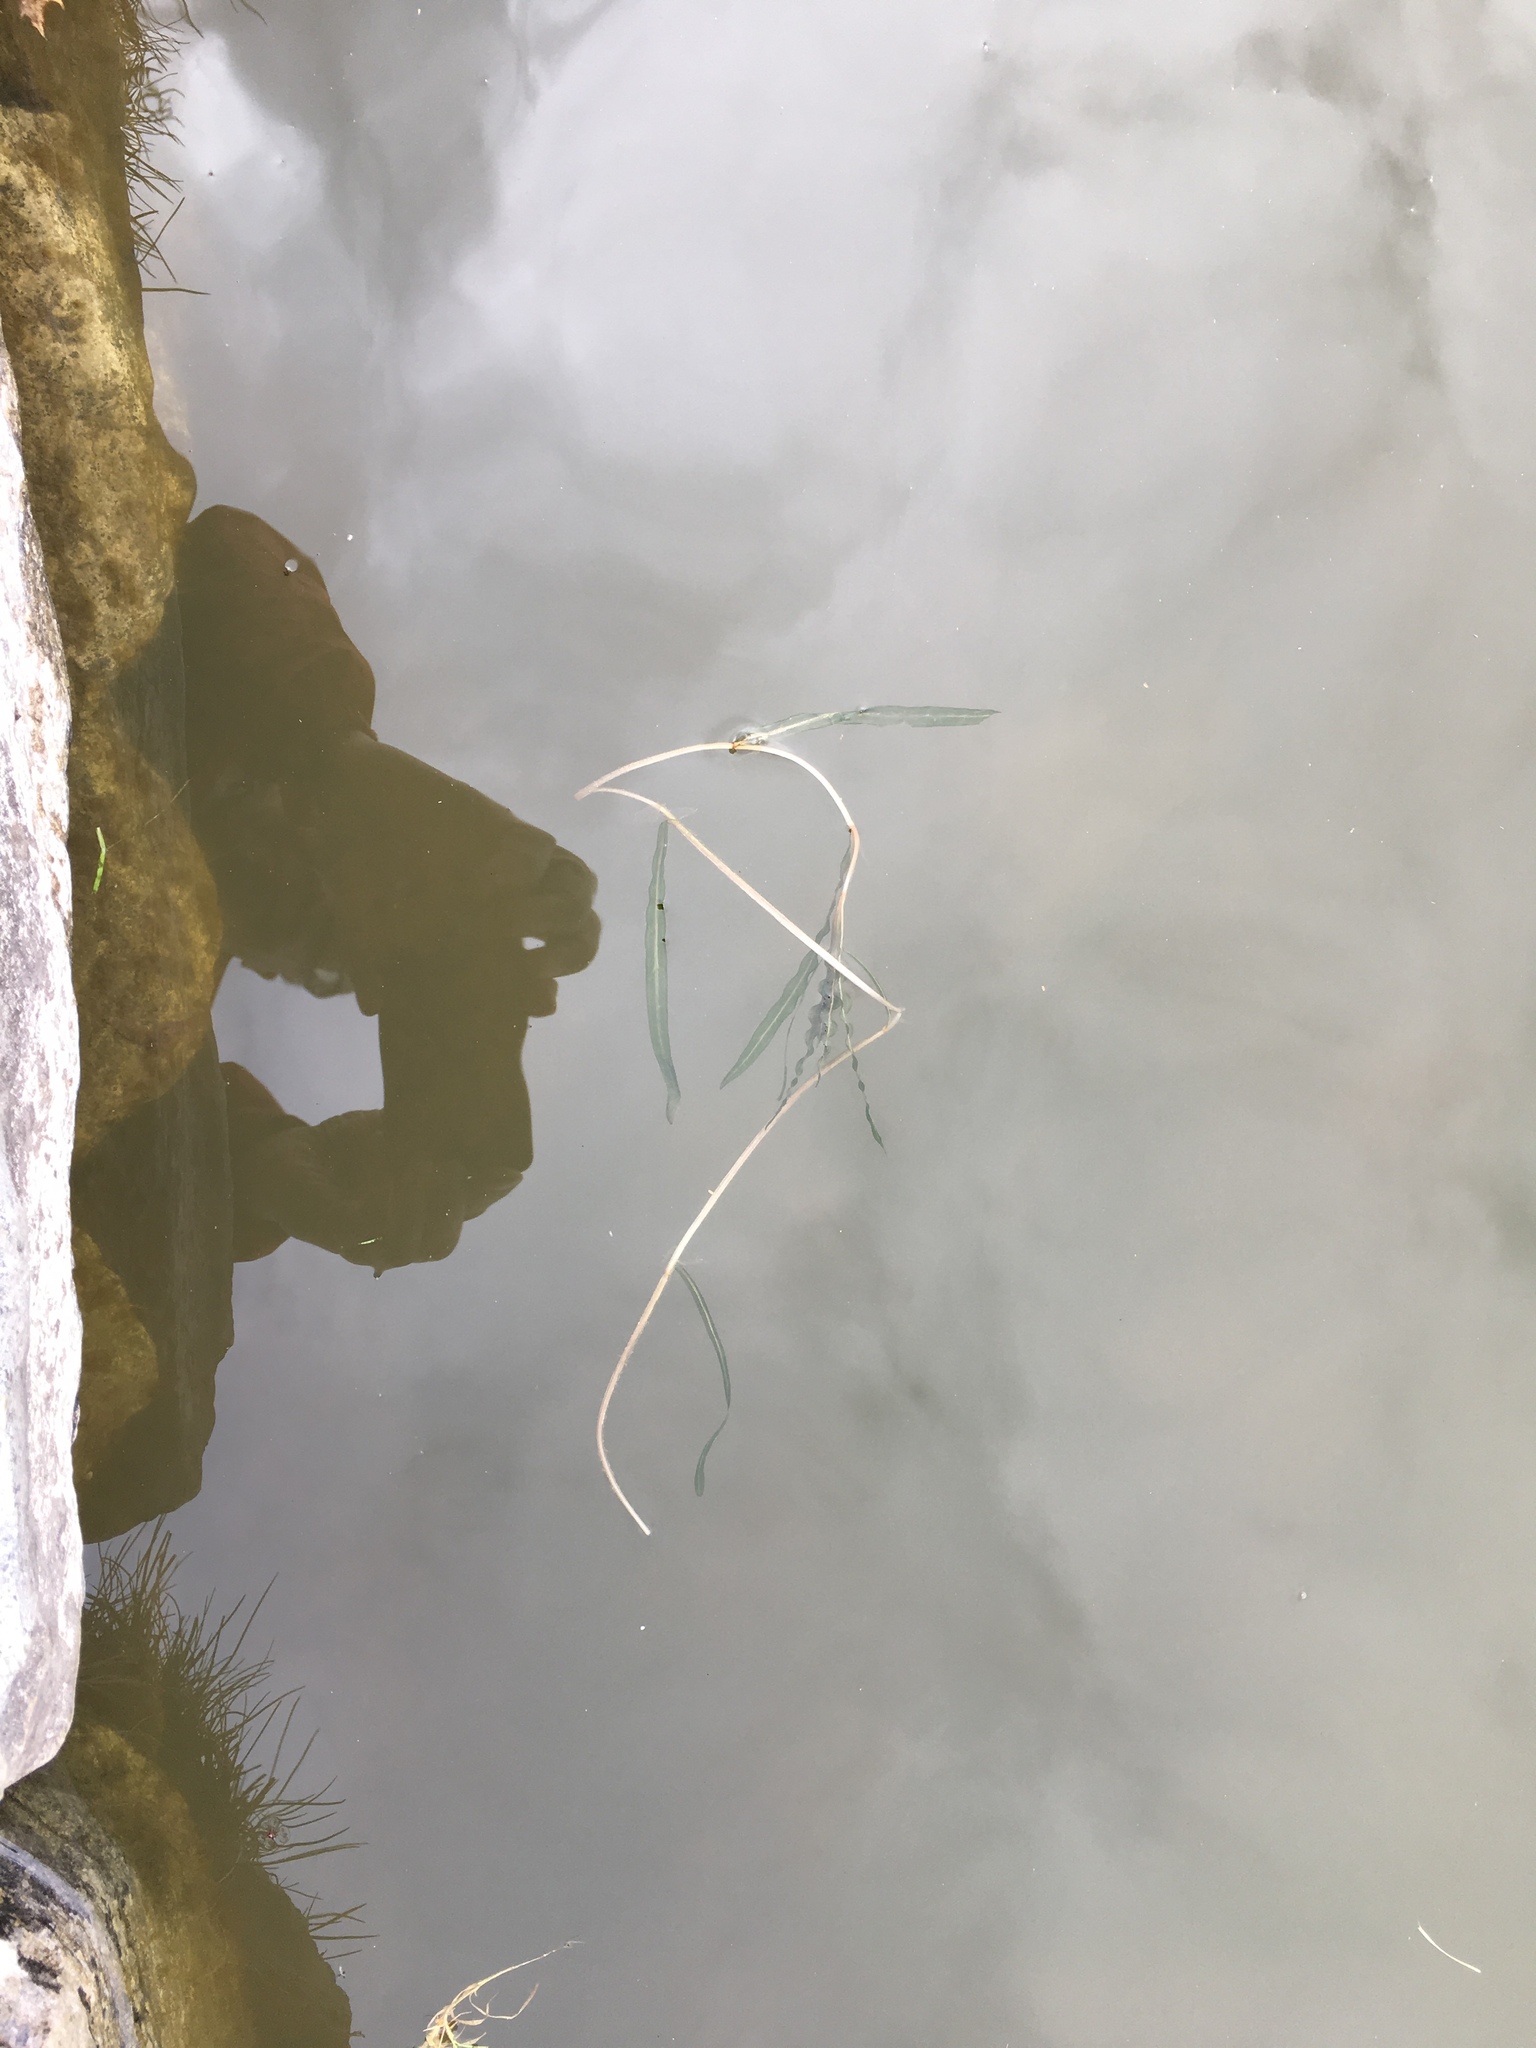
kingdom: Plantae
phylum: Tracheophyta
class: Liliopsida
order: Alismatales
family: Potamogetonaceae
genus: Potamogeton
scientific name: Potamogeton crispus
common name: Curled pondweed
